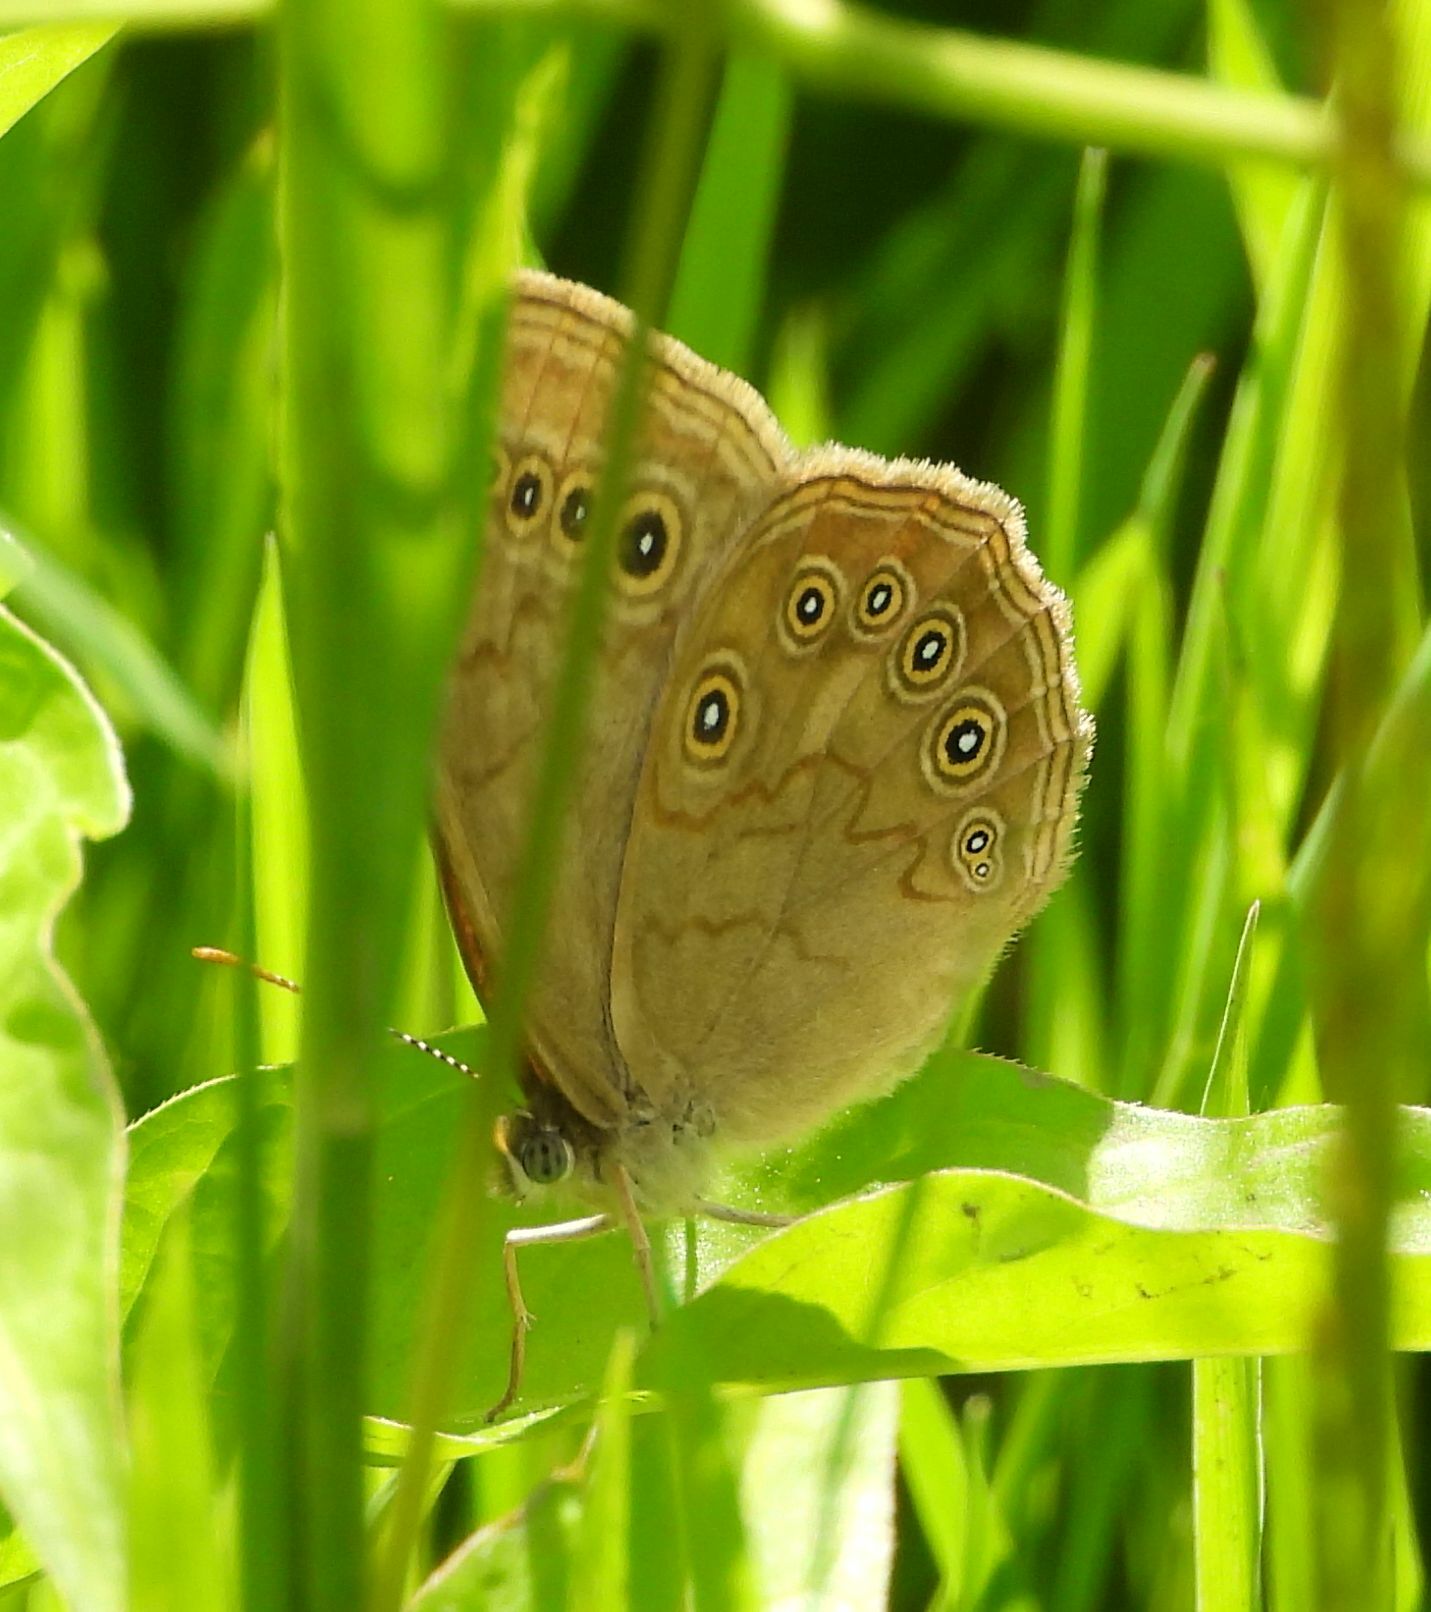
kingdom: Animalia
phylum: Arthropoda
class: Insecta
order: Lepidoptera
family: Nymphalidae
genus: Lethe
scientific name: Lethe eurydice
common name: Eyed brown
